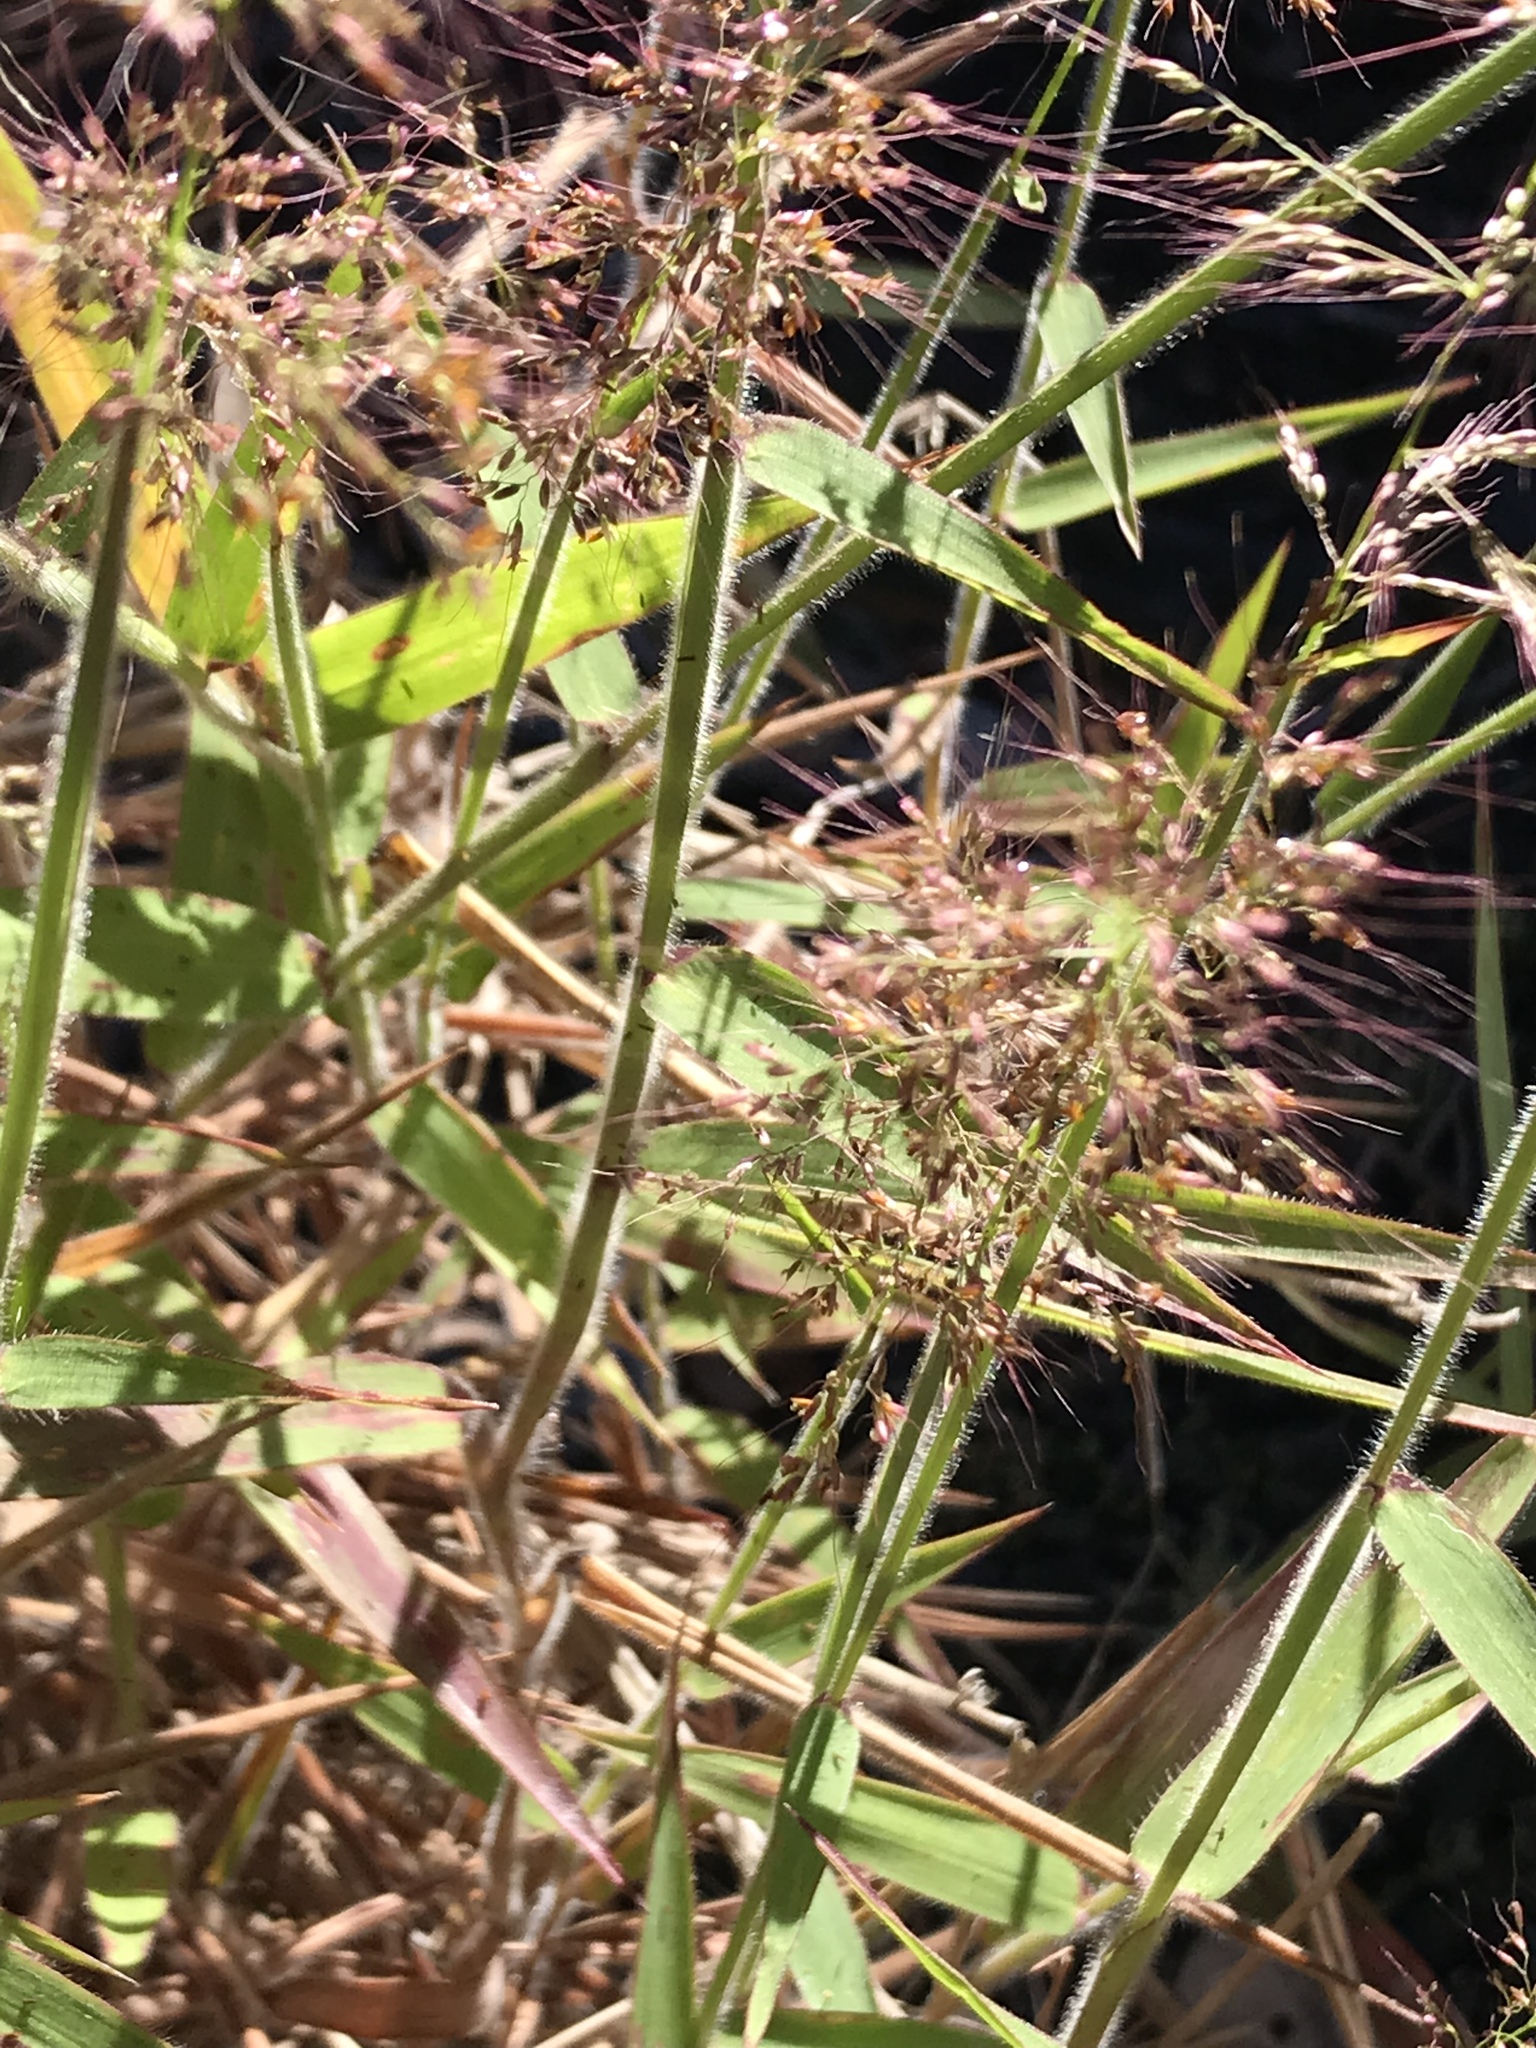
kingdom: Plantae
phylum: Tracheophyta
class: Liliopsida
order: Poales
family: Poaceae
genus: Melinis
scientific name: Melinis minutiflora
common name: Molassesgrass
